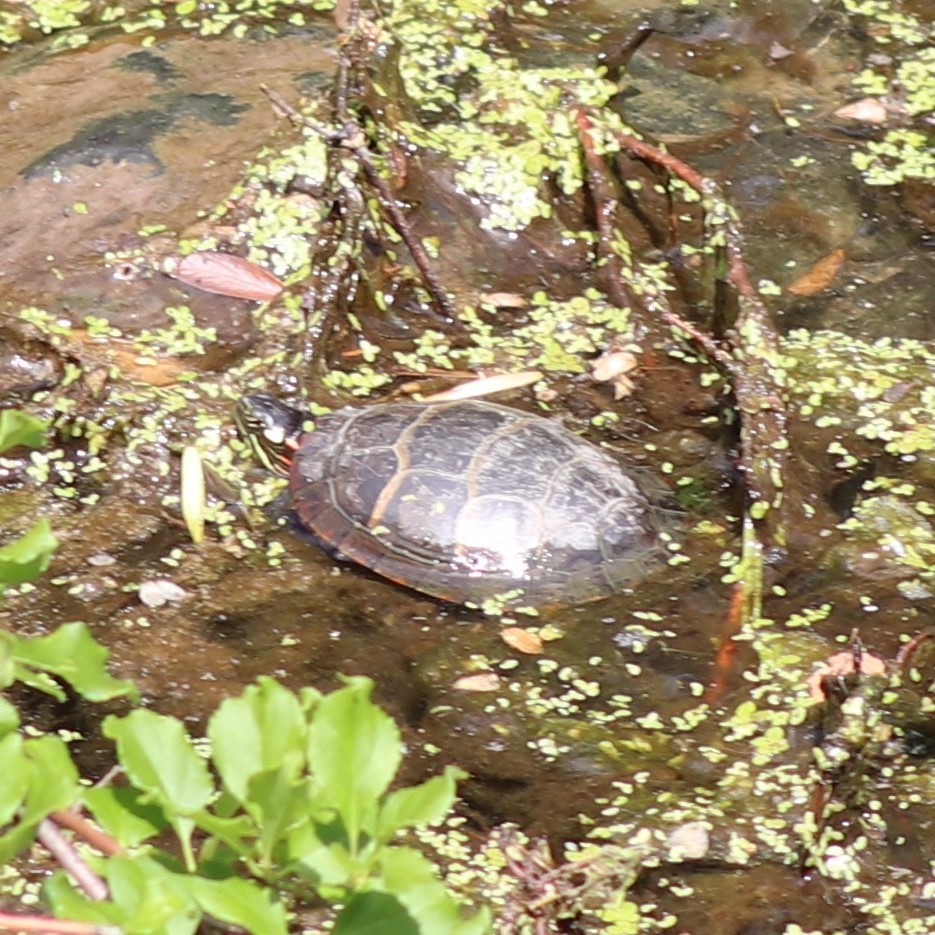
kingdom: Animalia
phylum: Chordata
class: Testudines
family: Emydidae
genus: Chrysemys
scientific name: Chrysemys picta
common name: Painted turtle
